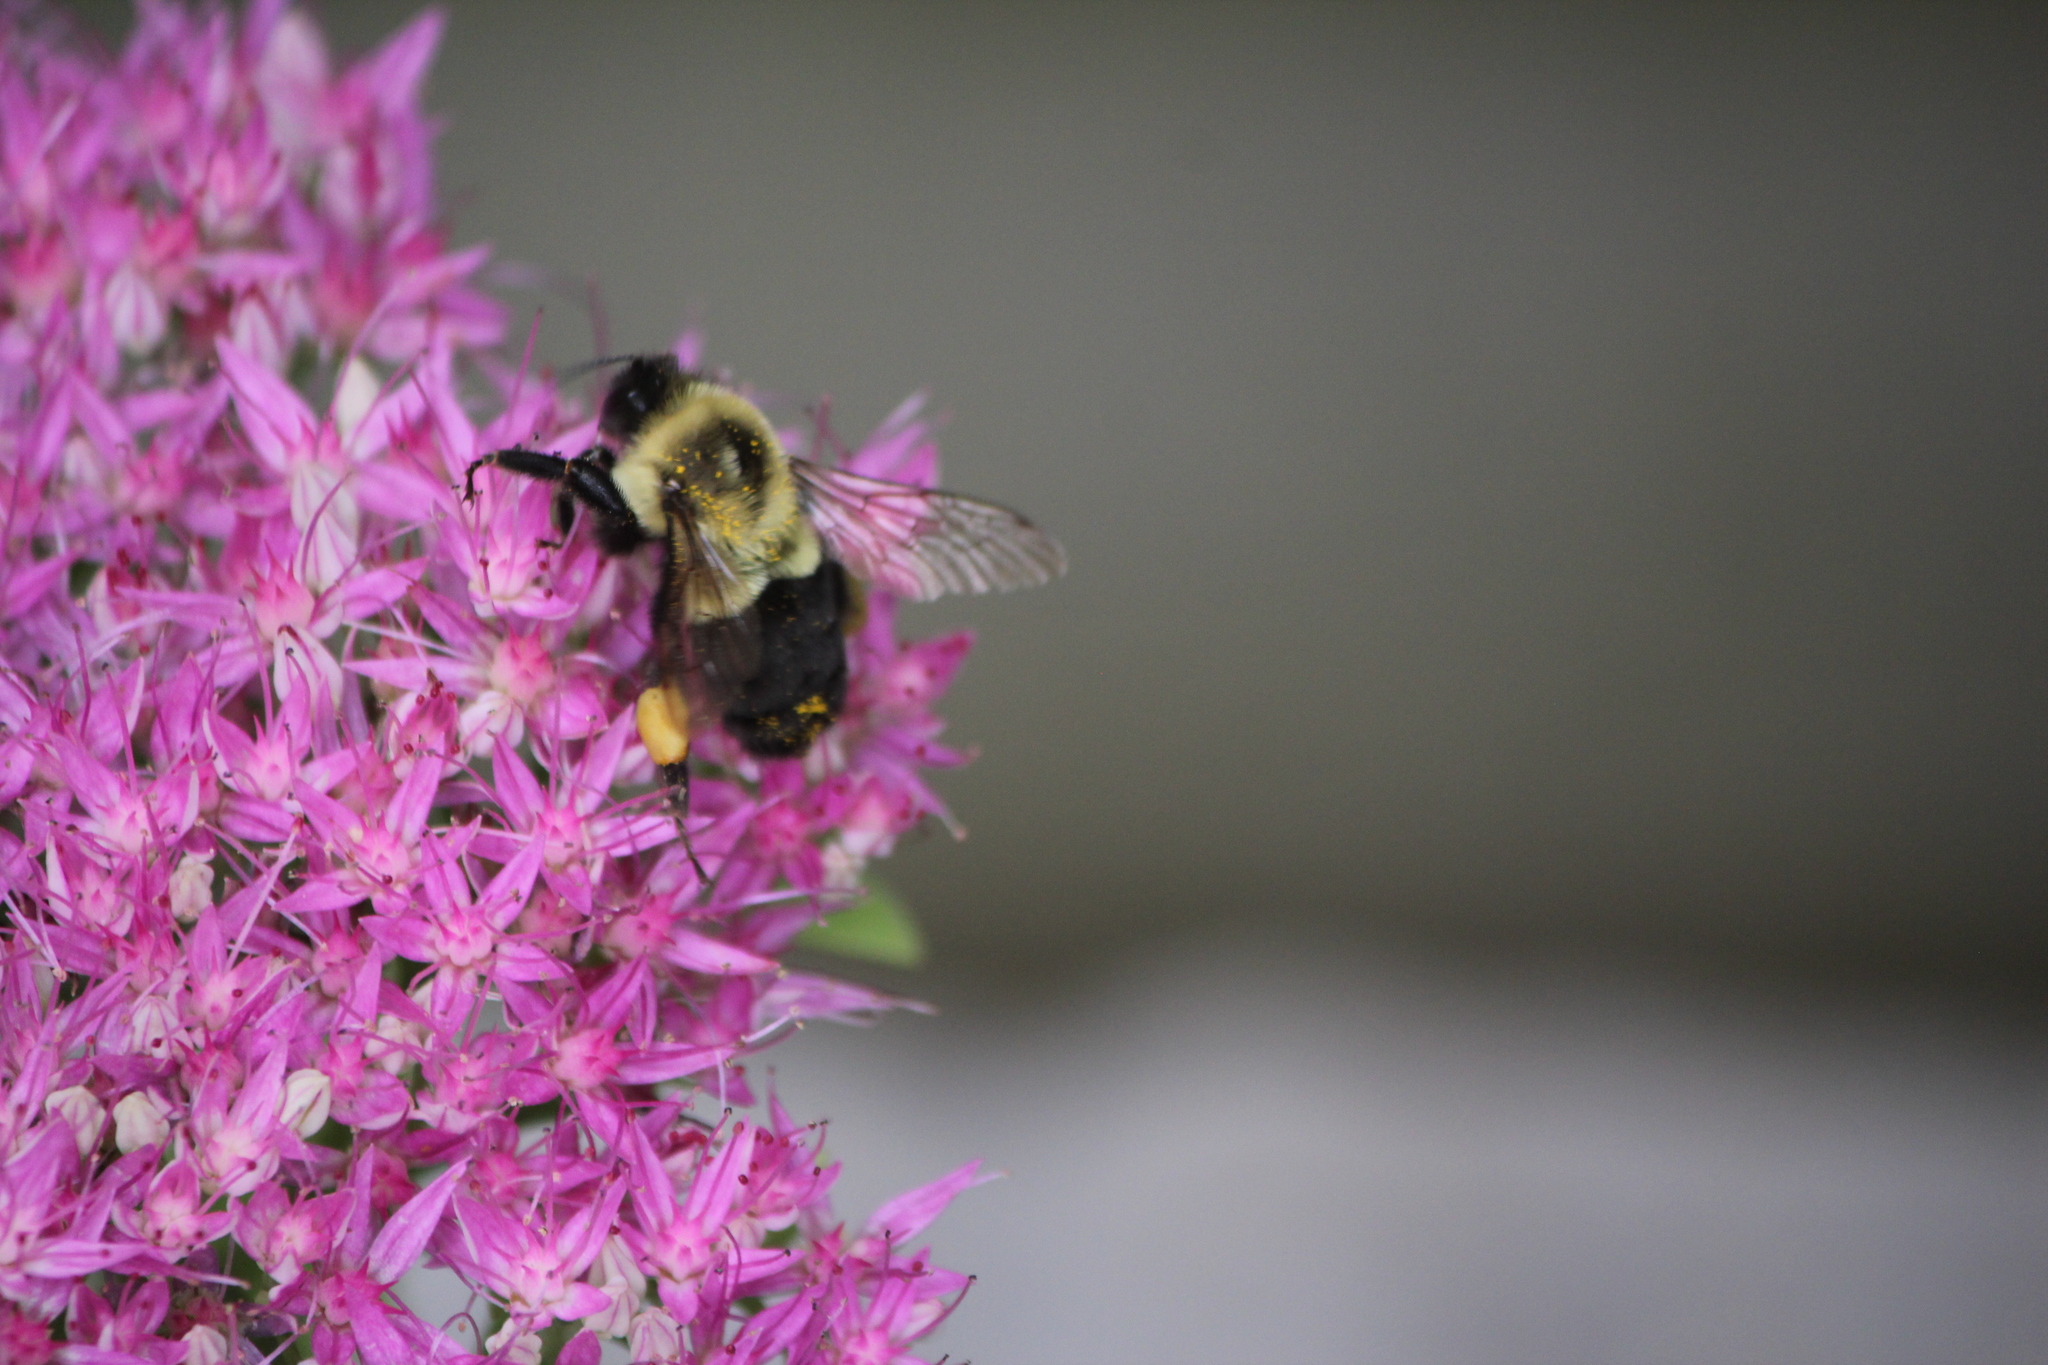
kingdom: Animalia
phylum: Arthropoda
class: Insecta
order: Hymenoptera
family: Apidae
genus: Bombus
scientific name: Bombus impatiens
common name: Common eastern bumble bee
